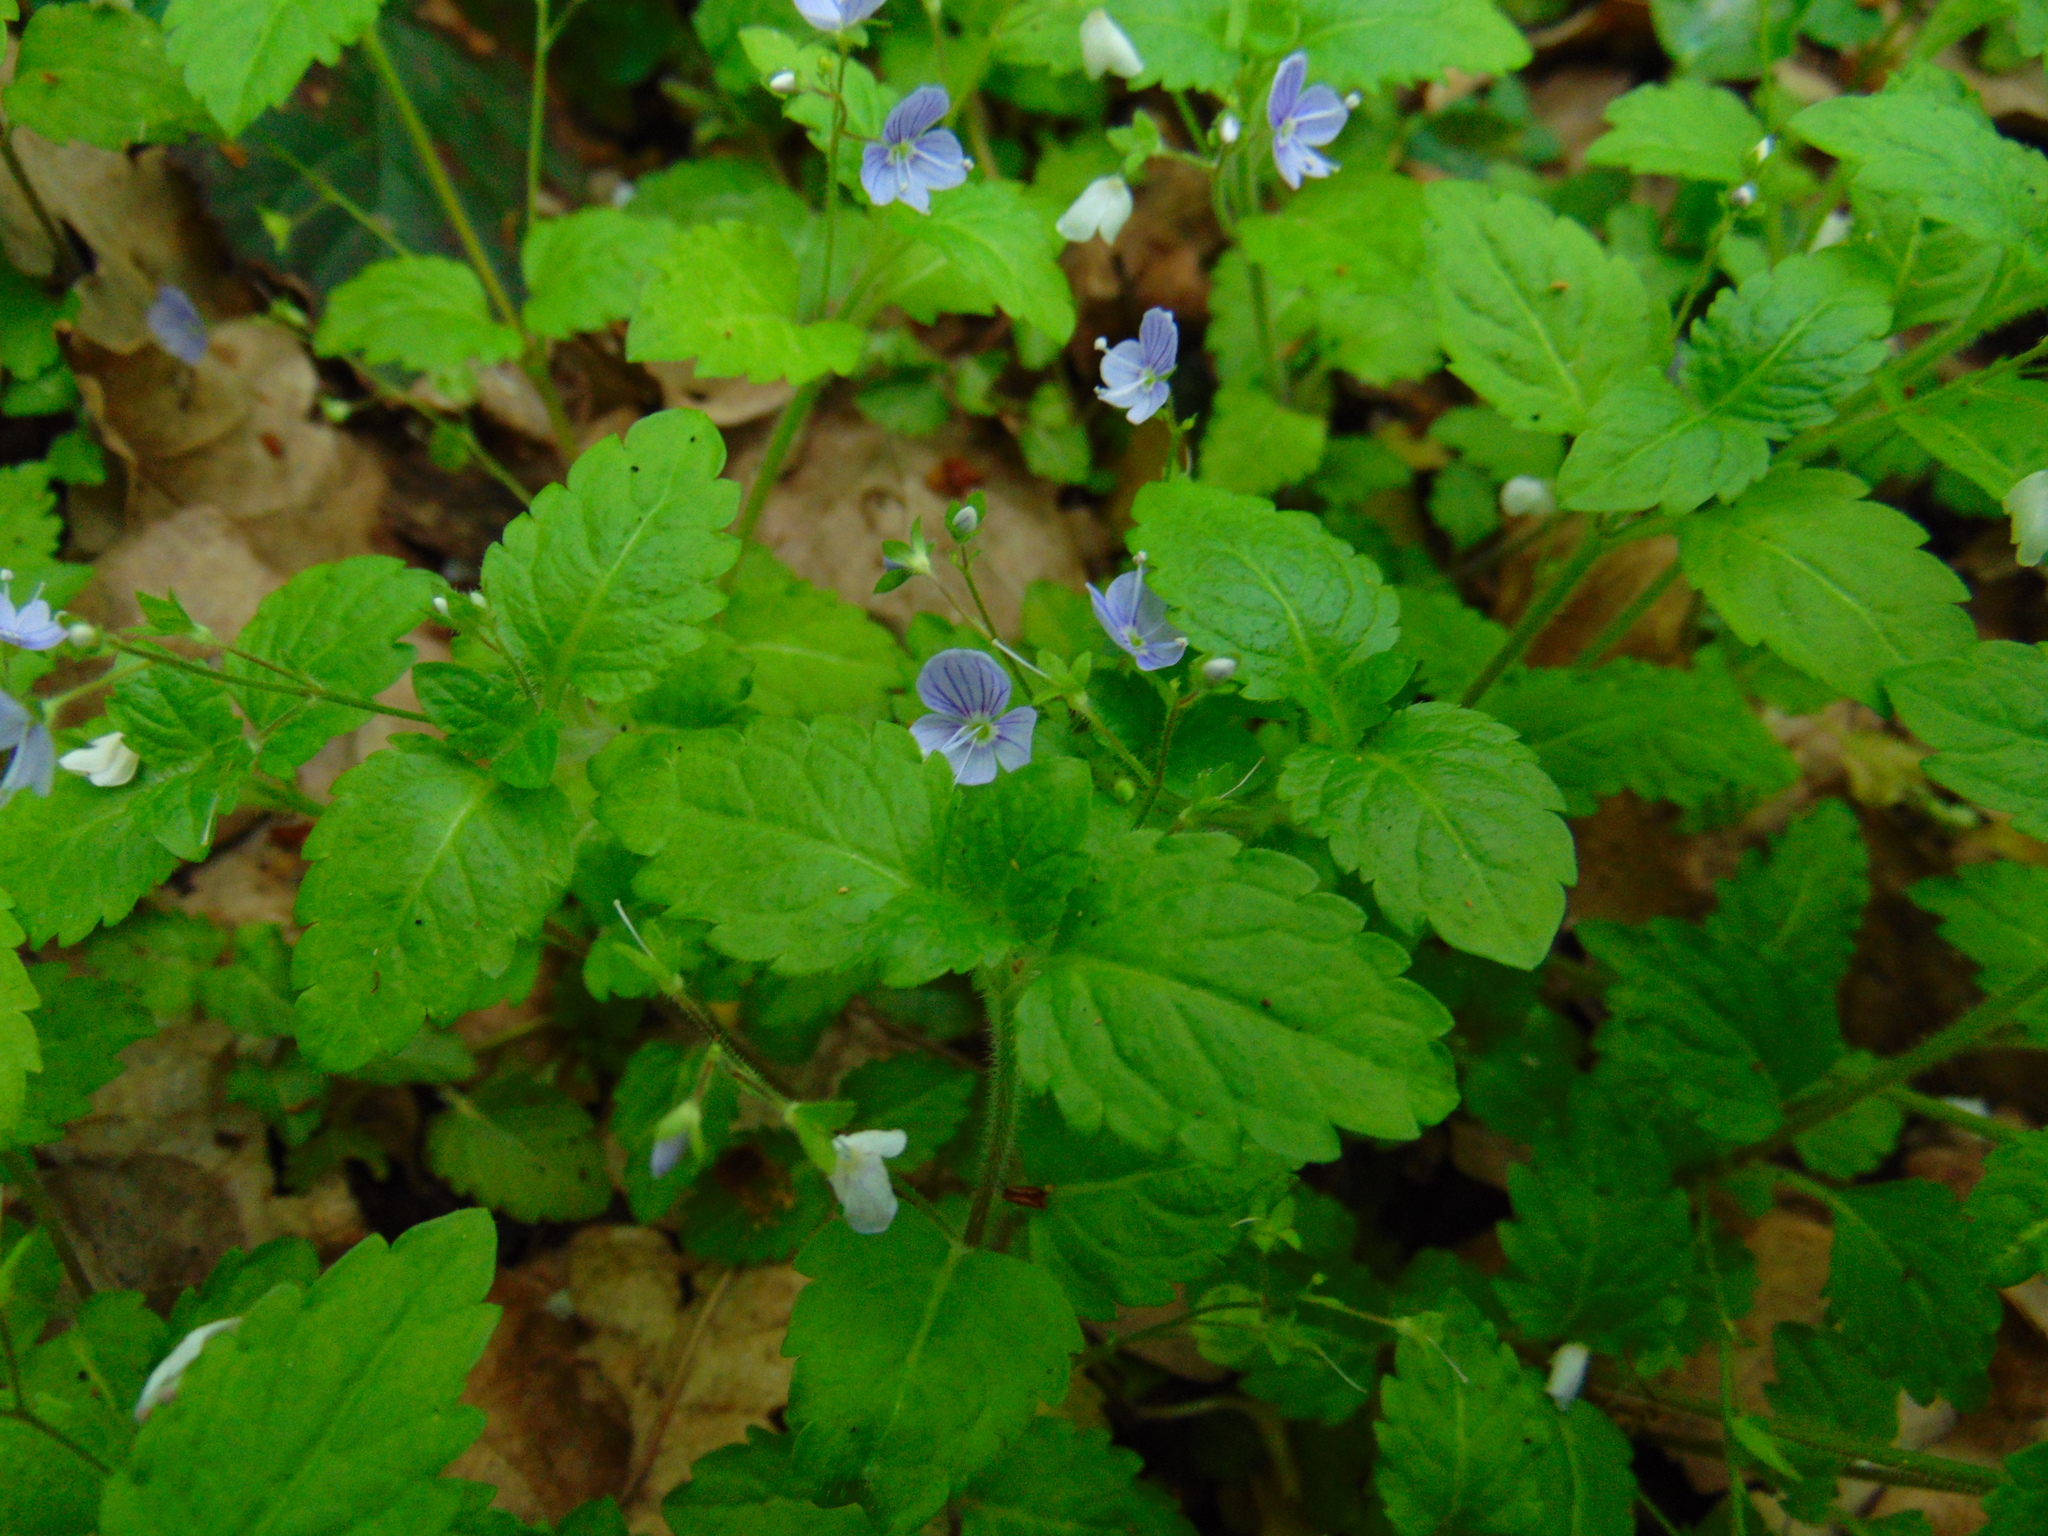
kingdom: Plantae
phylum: Tracheophyta
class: Magnoliopsida
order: Lamiales
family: Plantaginaceae
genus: Veronica
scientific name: Veronica montana
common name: Wood speedwell
